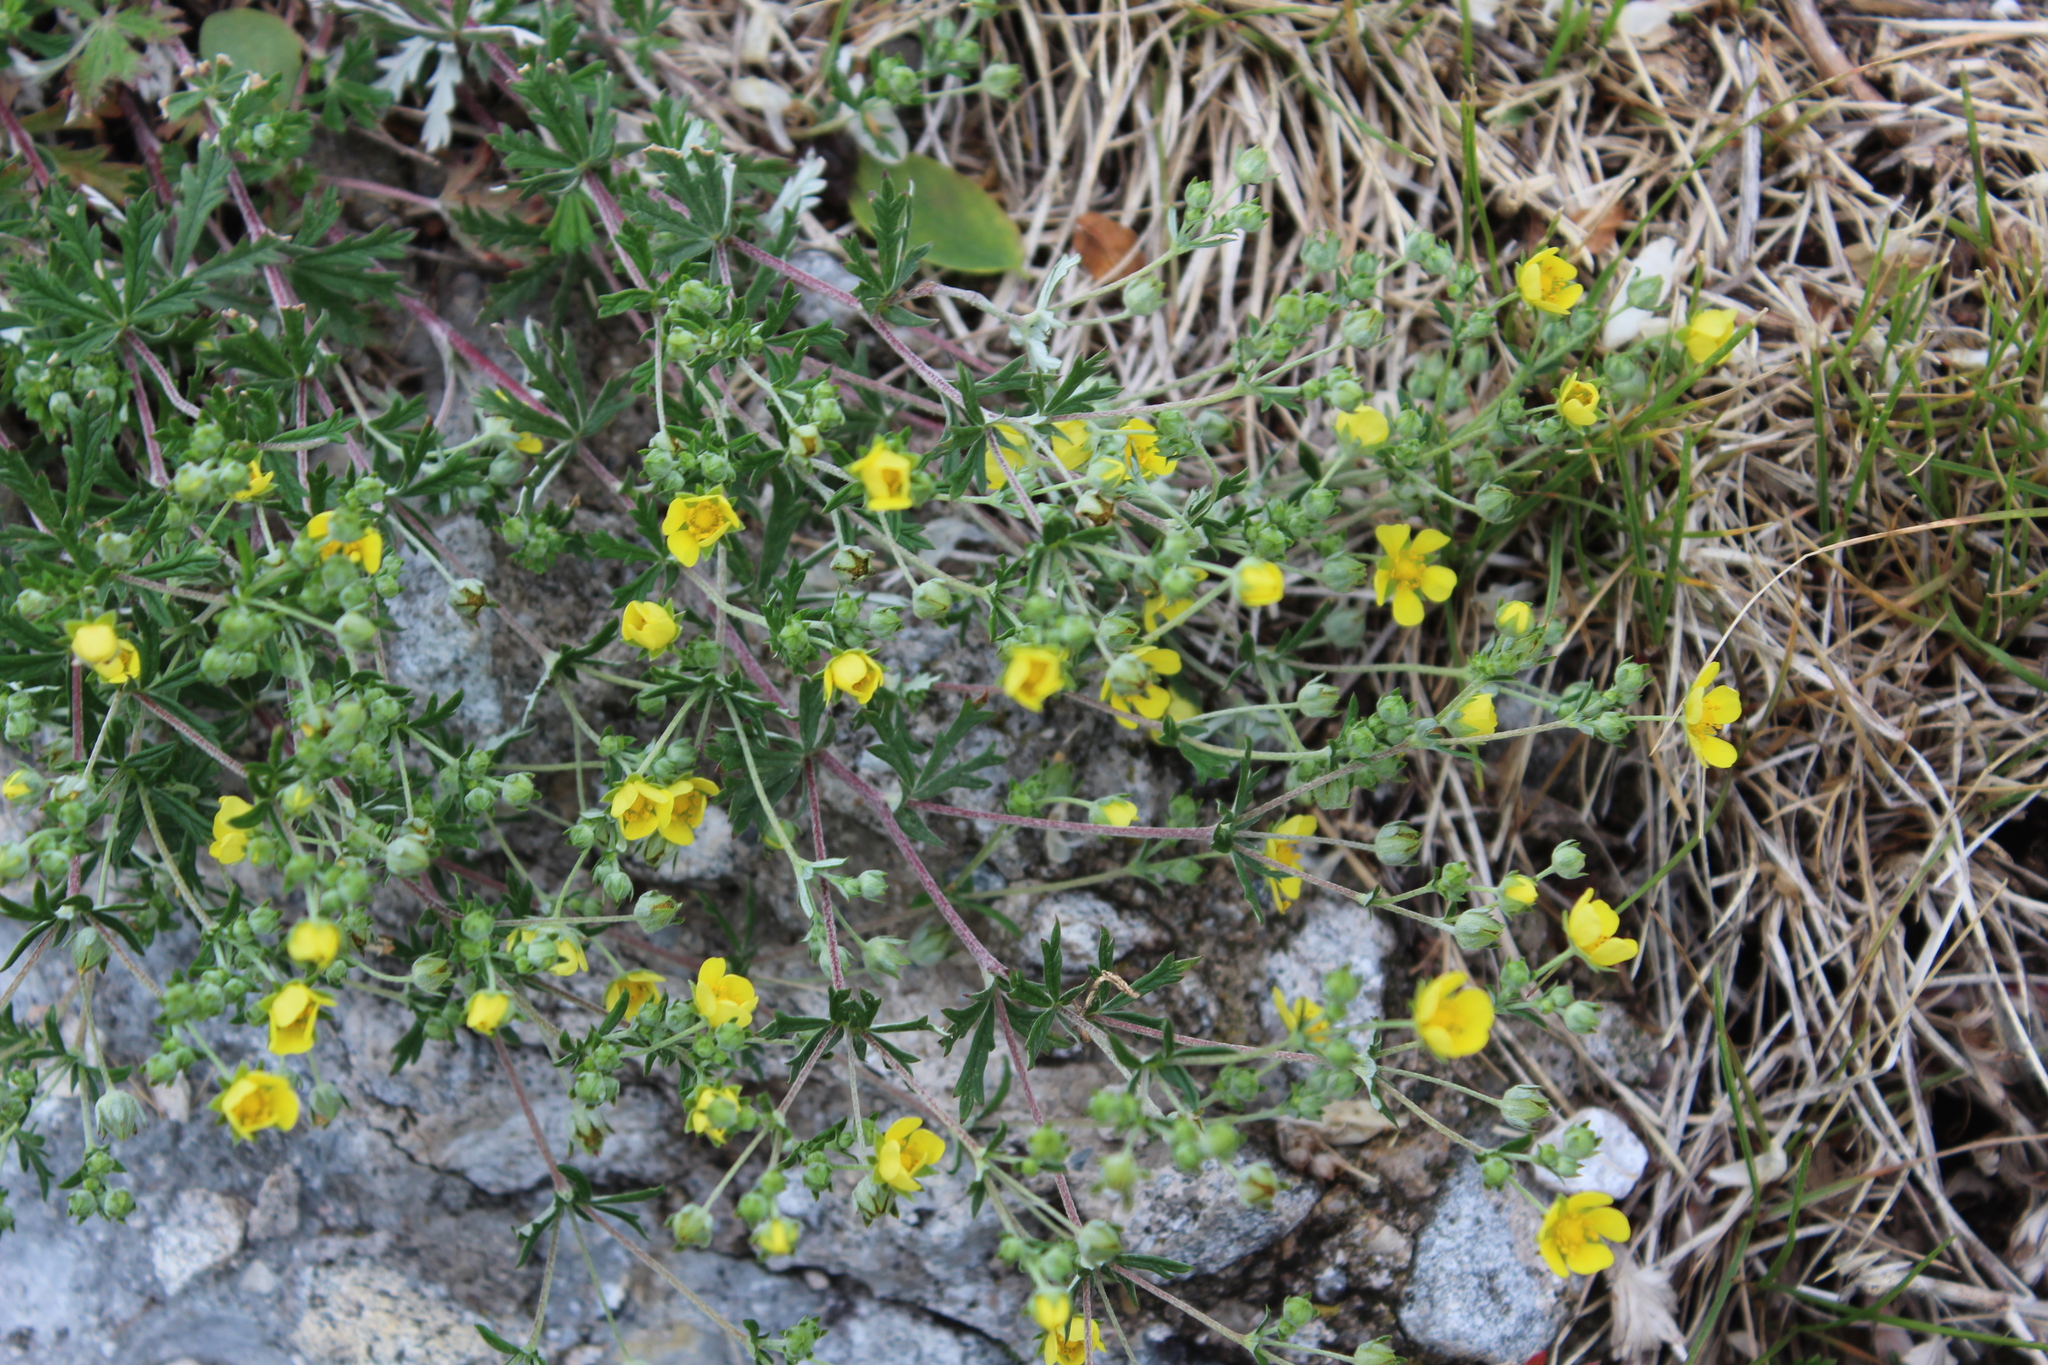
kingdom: Plantae
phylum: Tracheophyta
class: Magnoliopsida
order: Rosales
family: Rosaceae
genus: Potentilla
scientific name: Potentilla argentea
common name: Hoary cinquefoil
